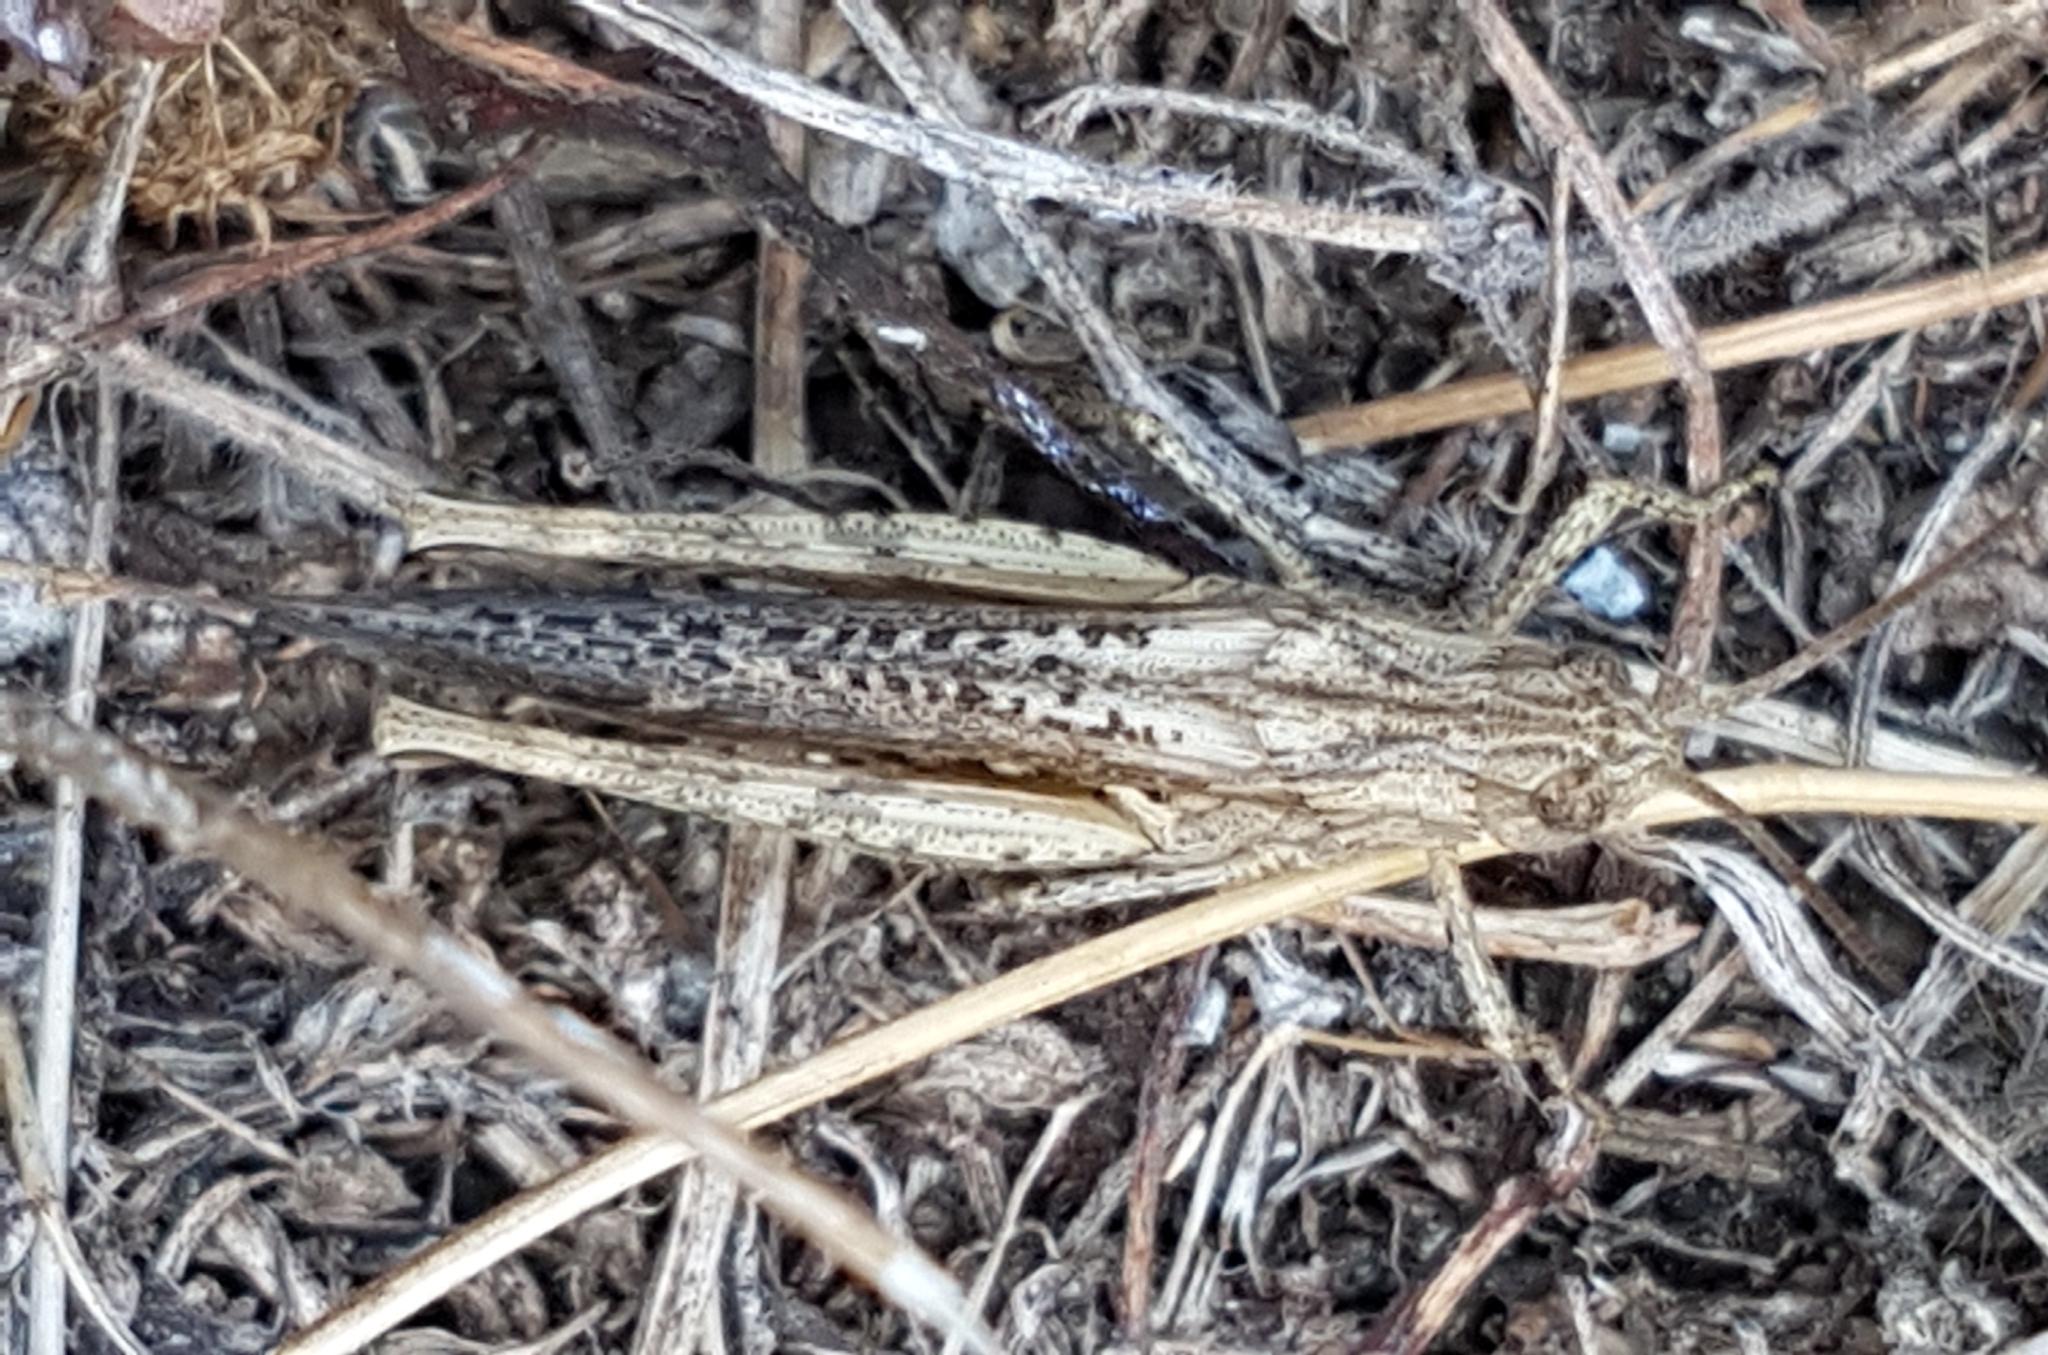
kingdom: Animalia
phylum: Arthropoda
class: Insecta
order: Orthoptera
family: Acrididae
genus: Chorthippus
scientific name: Chorthippus brunneus
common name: Field grasshopper
